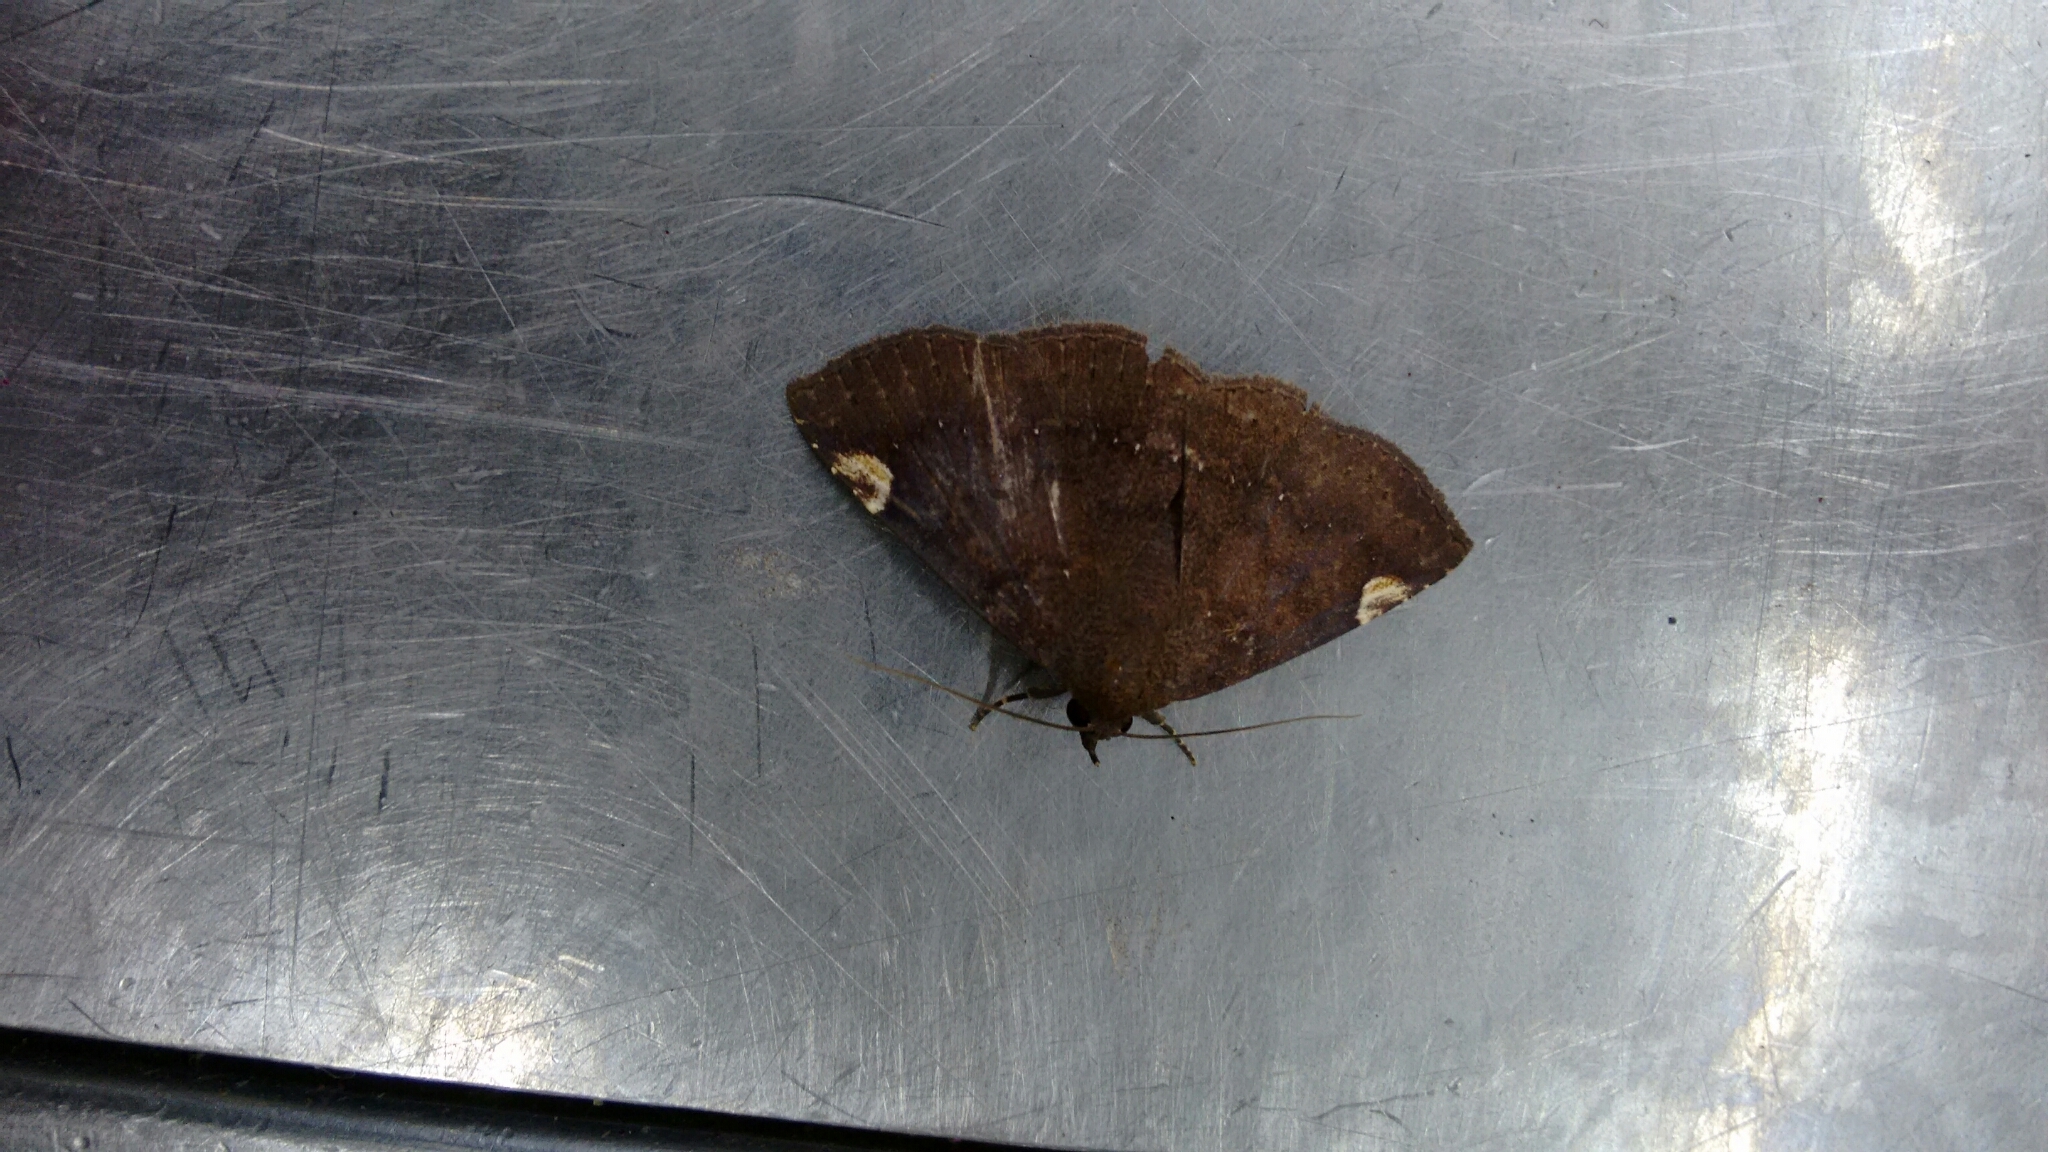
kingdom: Animalia
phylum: Arthropoda
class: Insecta
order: Lepidoptera
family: Erebidae
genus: Antiblemma
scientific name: Antiblemma sterope
